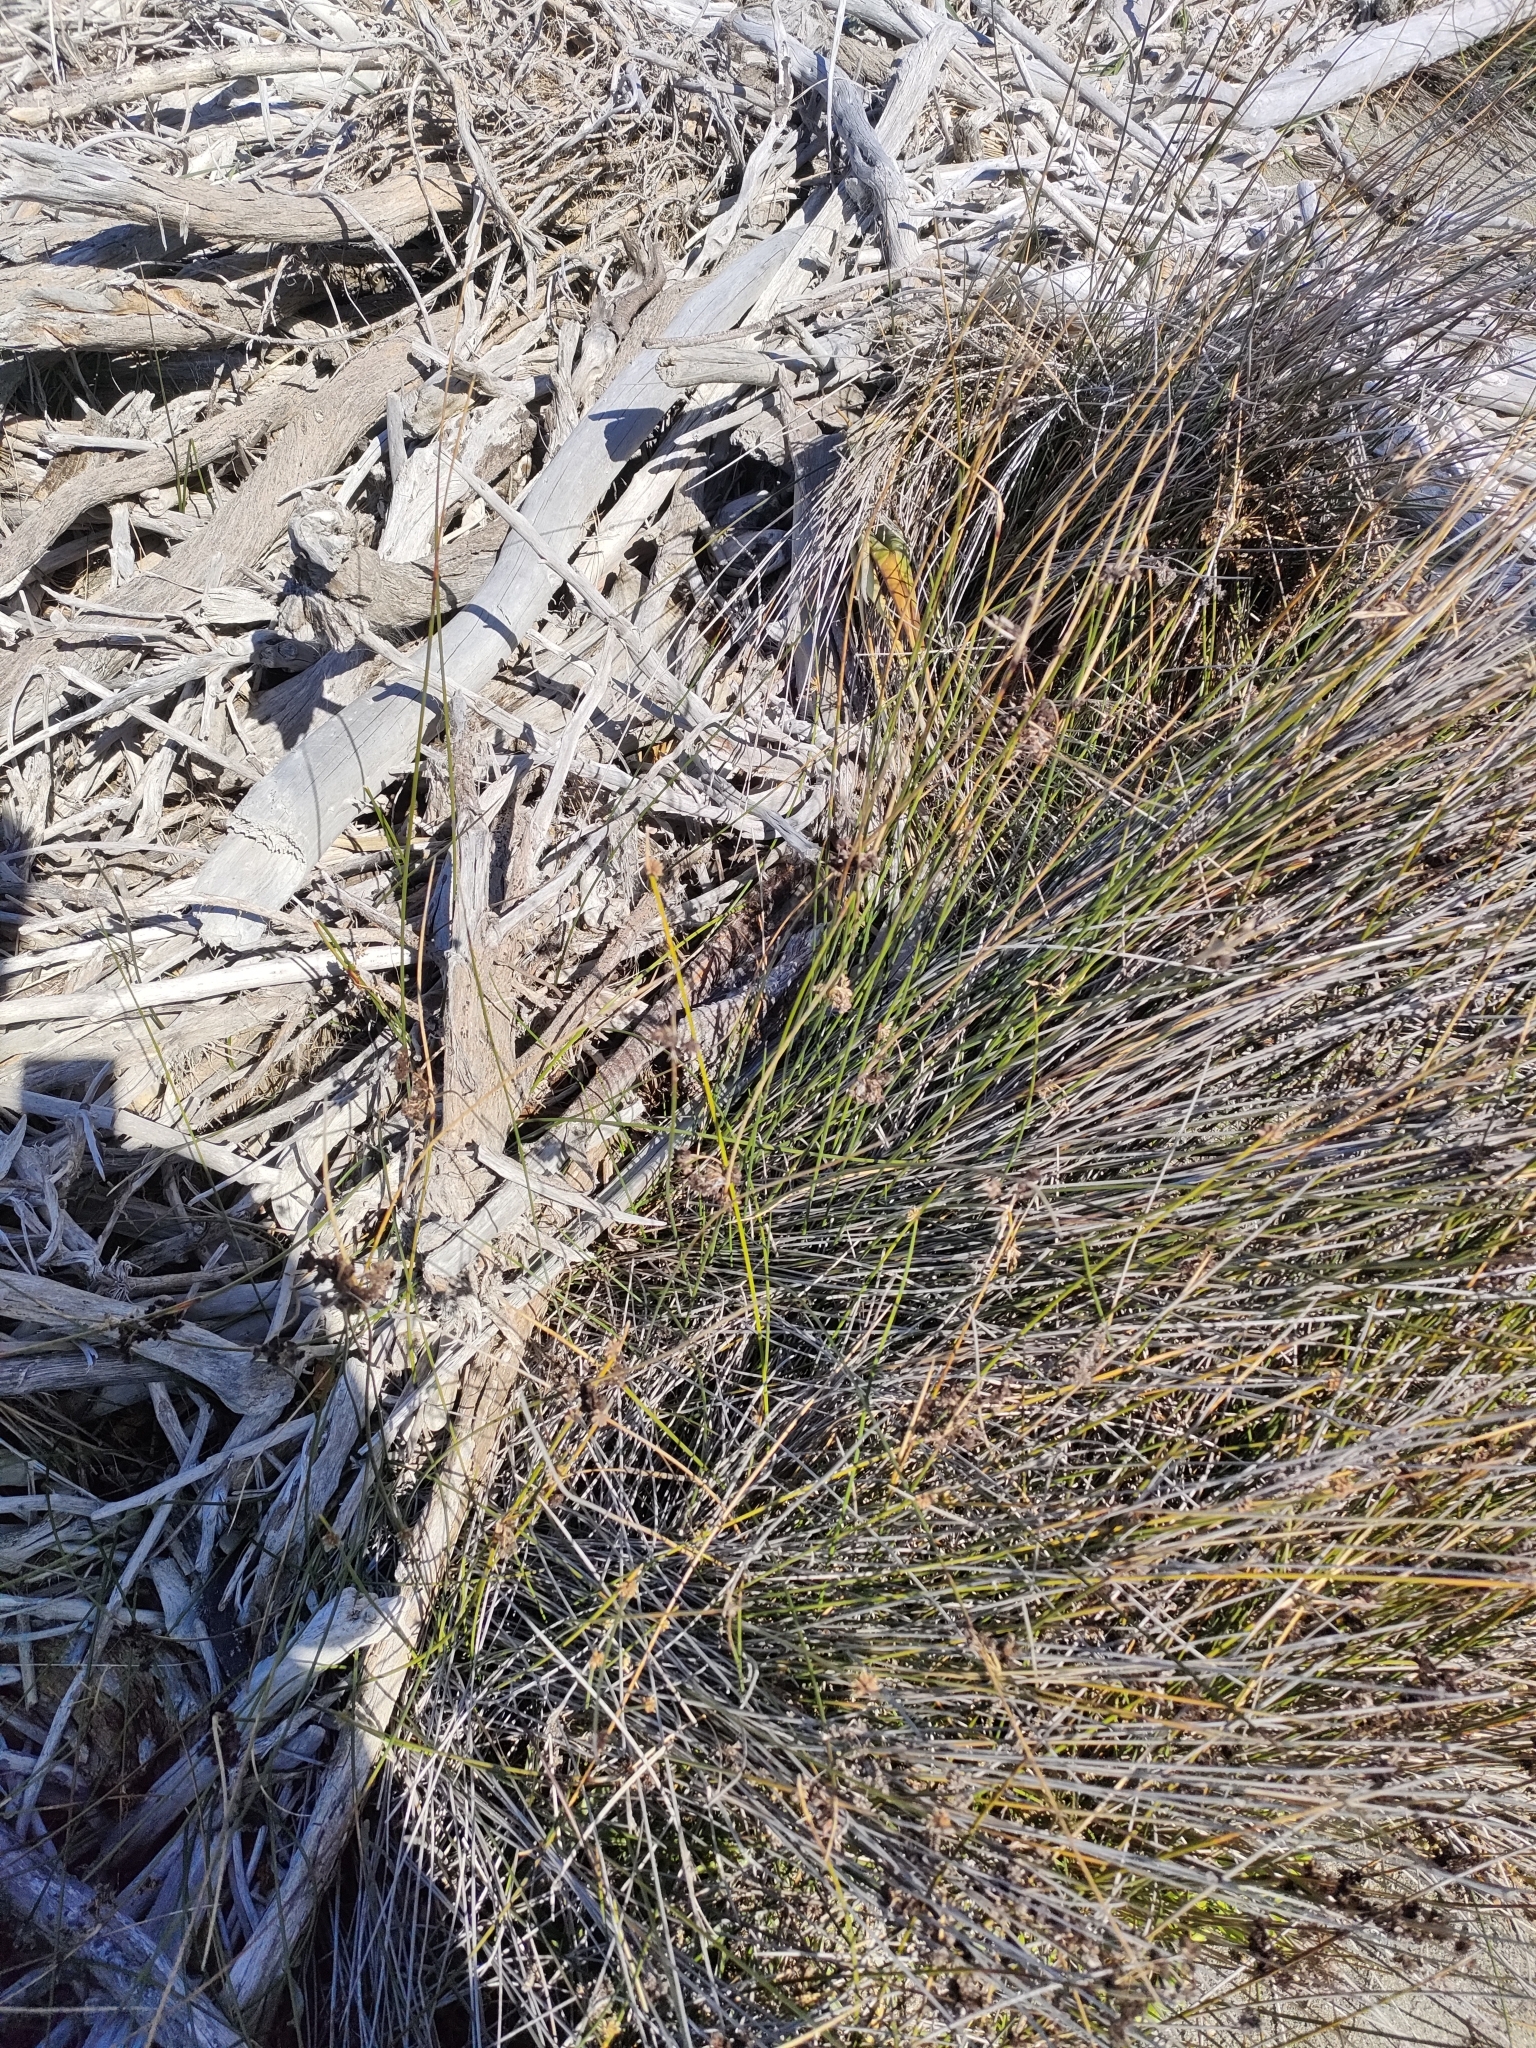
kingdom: Plantae
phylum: Tracheophyta
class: Liliopsida
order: Poales
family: Cyperaceae
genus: Ficinia
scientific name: Ficinia nodosa
